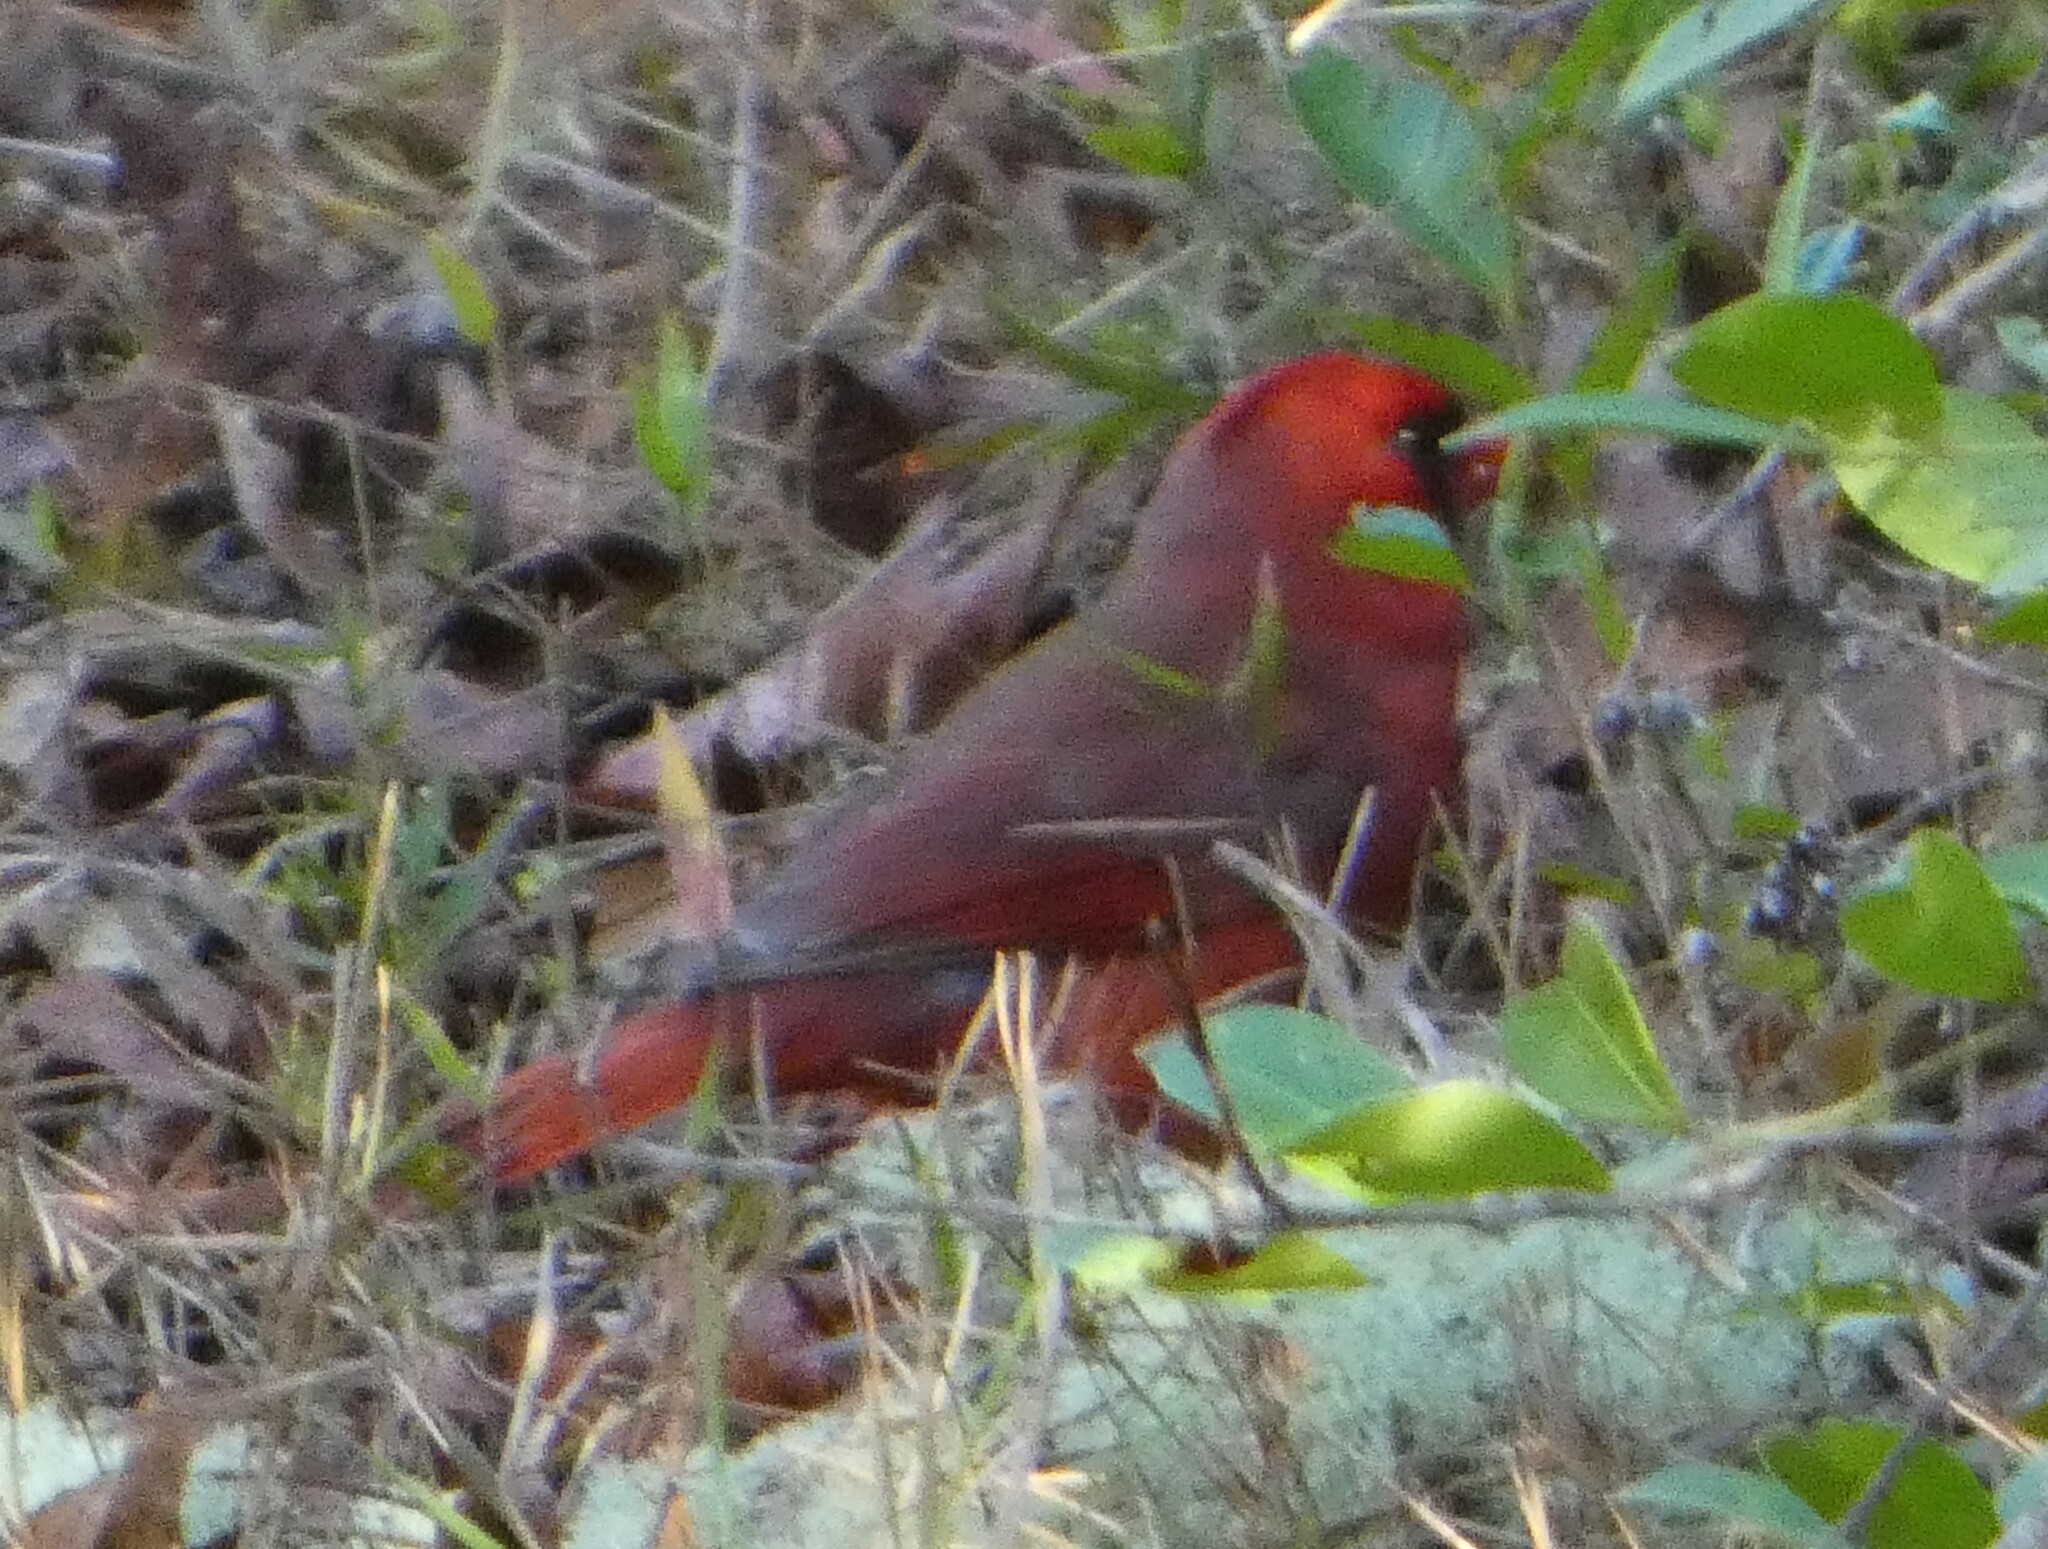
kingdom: Animalia
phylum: Chordata
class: Aves
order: Passeriformes
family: Cardinalidae
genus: Cardinalis
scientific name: Cardinalis cardinalis
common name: Northern cardinal
